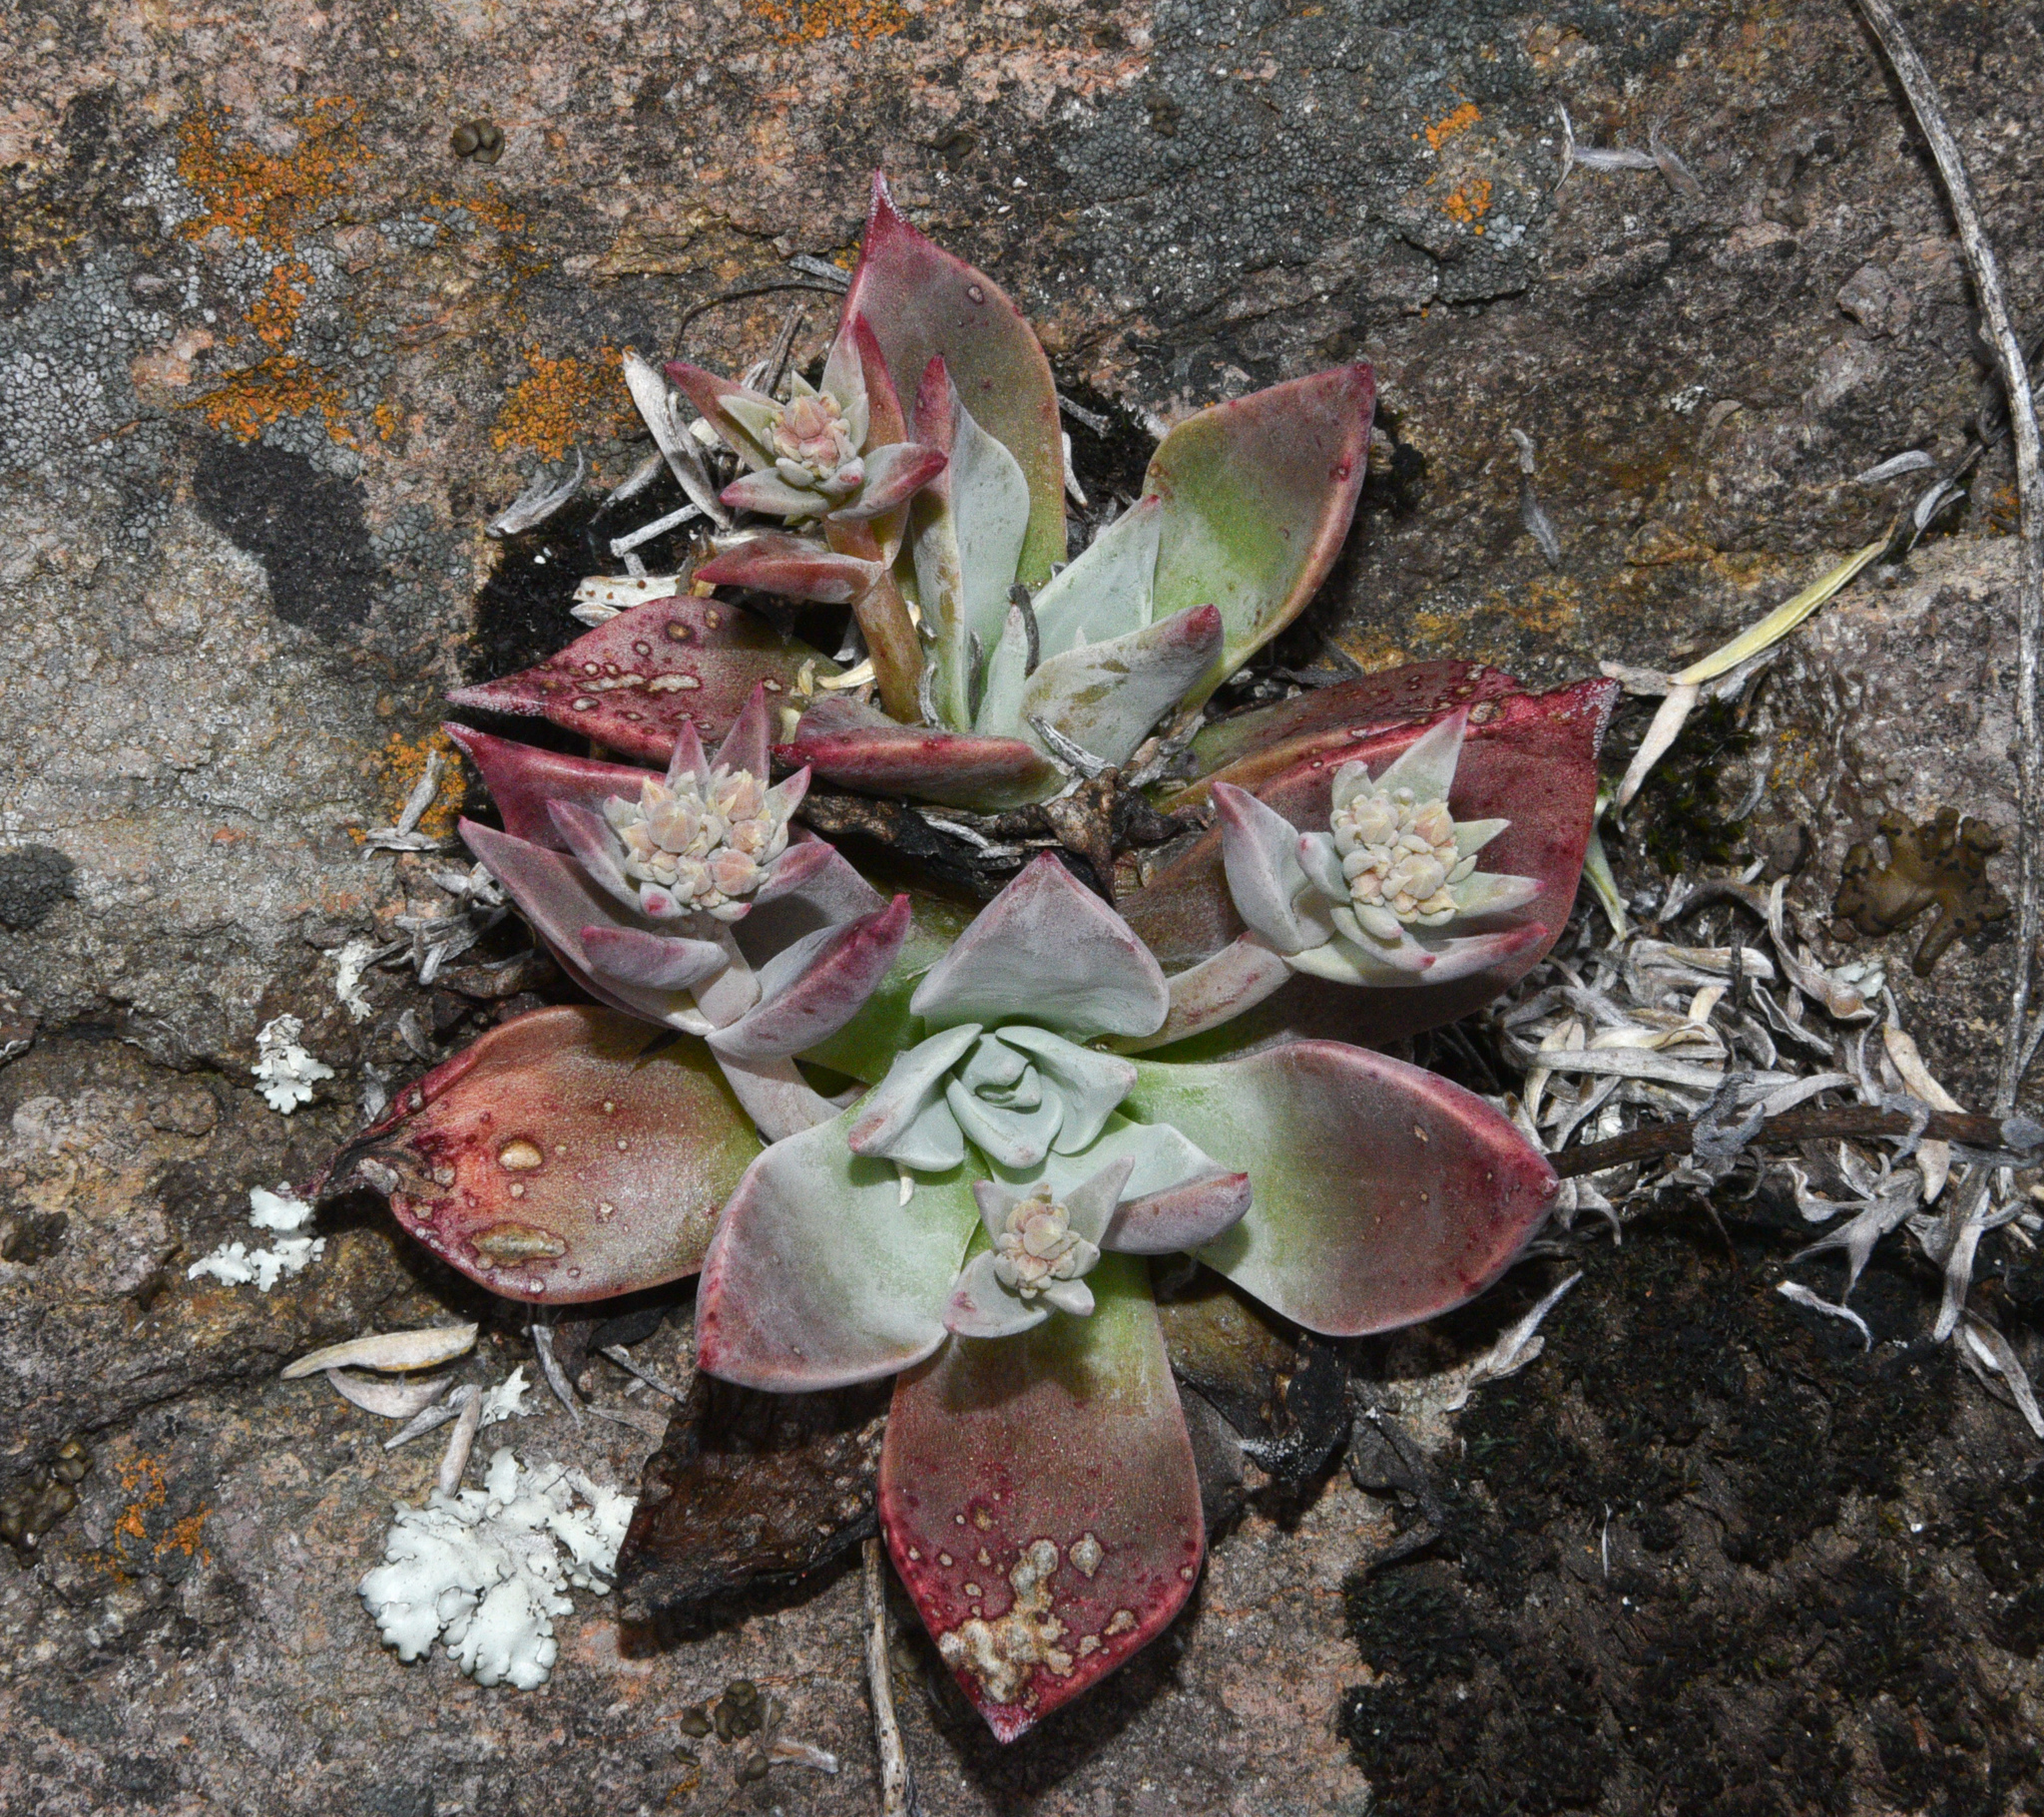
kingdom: Plantae
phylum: Tracheophyta
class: Magnoliopsida
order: Saxifragales
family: Crassulaceae
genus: Dudleya
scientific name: Dudleya cymosa
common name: Canyon dudleya
